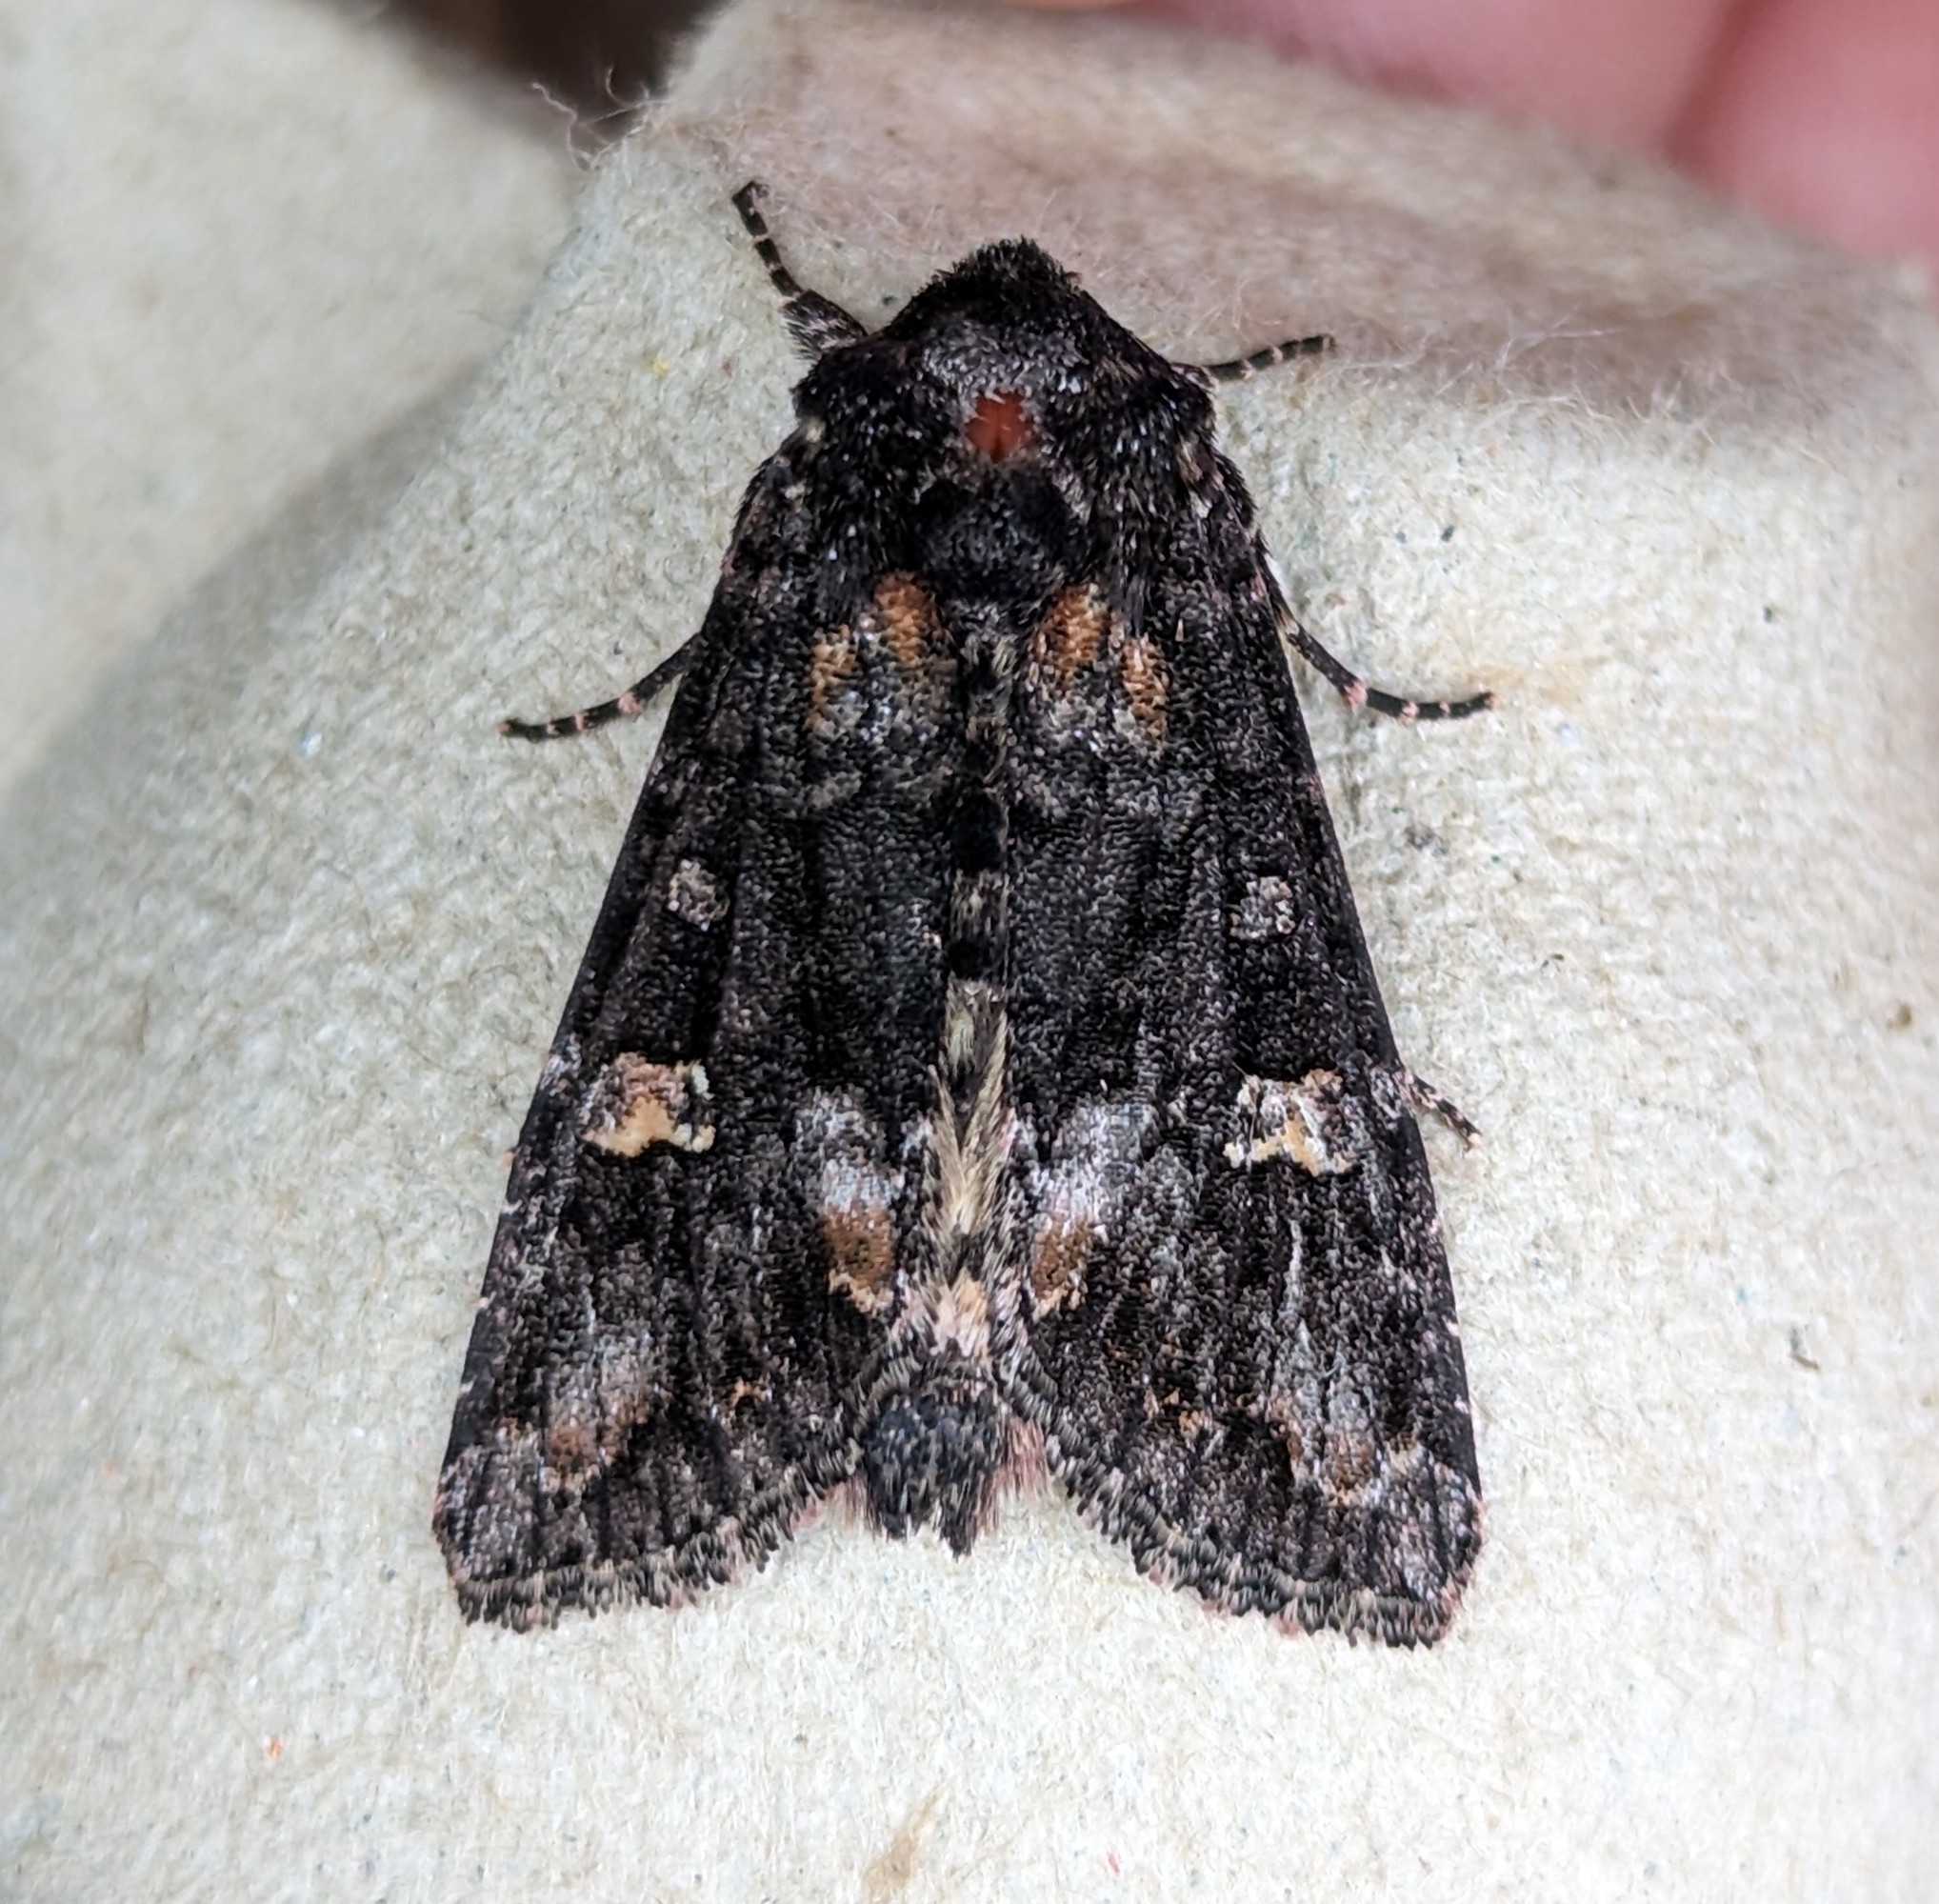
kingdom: Animalia
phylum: Arthropoda
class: Insecta
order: Lepidoptera
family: Noctuidae
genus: Spiramater
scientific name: Spiramater lutra
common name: Otter spiramater moth
